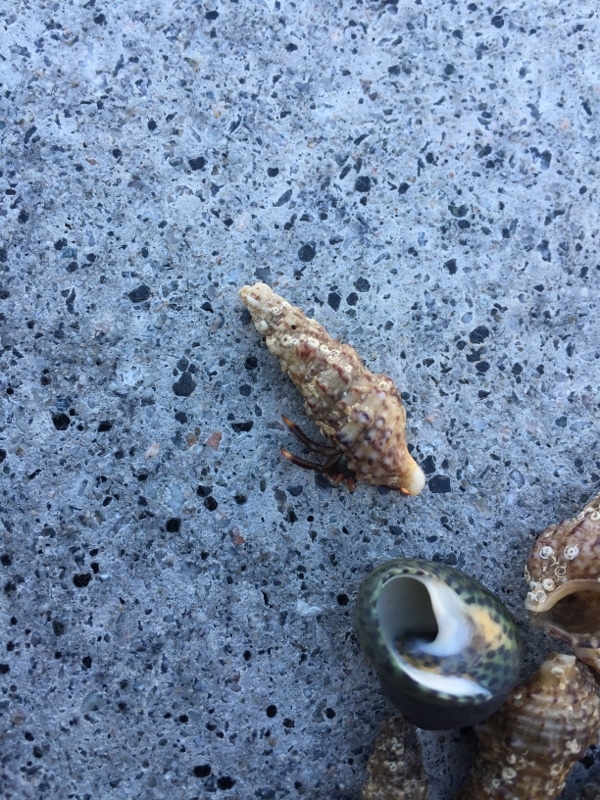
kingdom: Animalia
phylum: Arthropoda
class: Malacostraca
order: Decapoda
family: Diogenidae
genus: Clibanarius
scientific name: Clibanarius aequabilis
